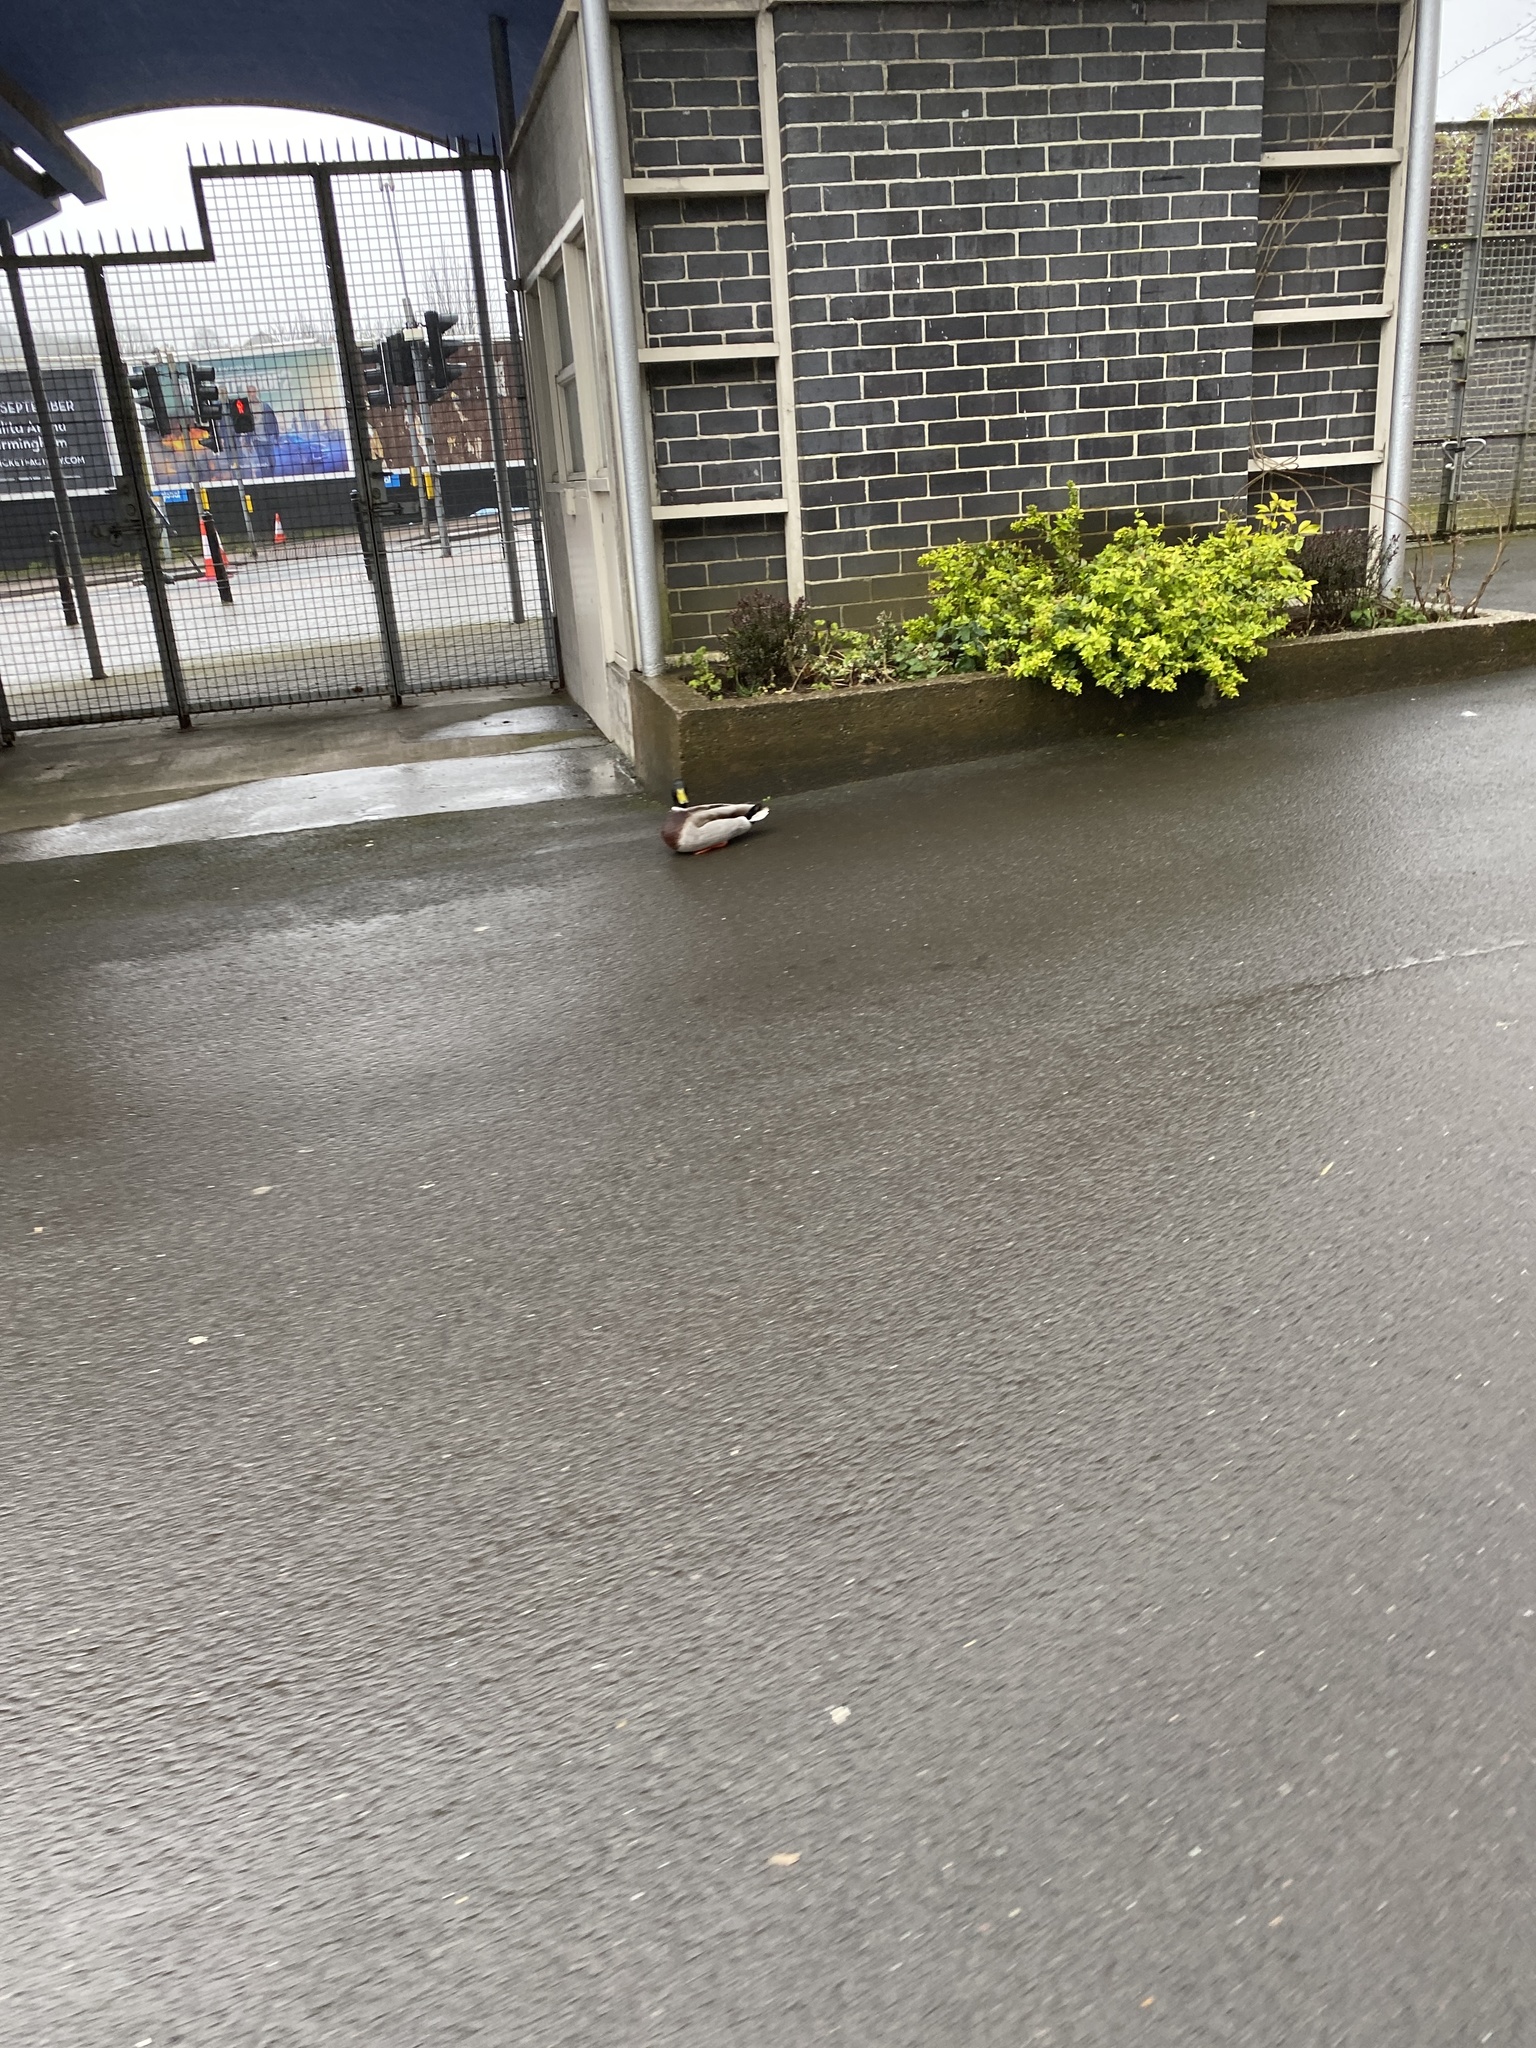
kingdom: Animalia
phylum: Chordata
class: Aves
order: Anseriformes
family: Anatidae
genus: Anas
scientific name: Anas platyrhynchos
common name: Mallard
